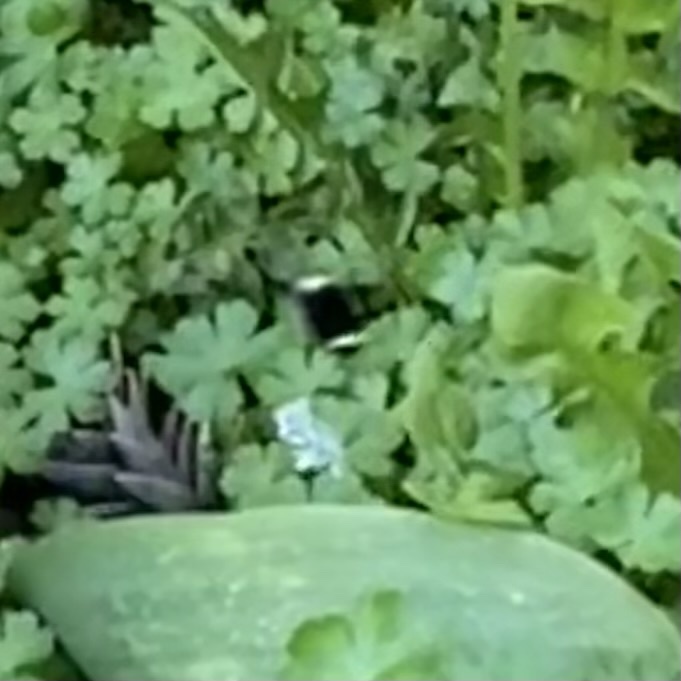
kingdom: Animalia
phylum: Arthropoda
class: Insecta
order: Hymenoptera
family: Apidae
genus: Pyrobombus
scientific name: Pyrobombus
